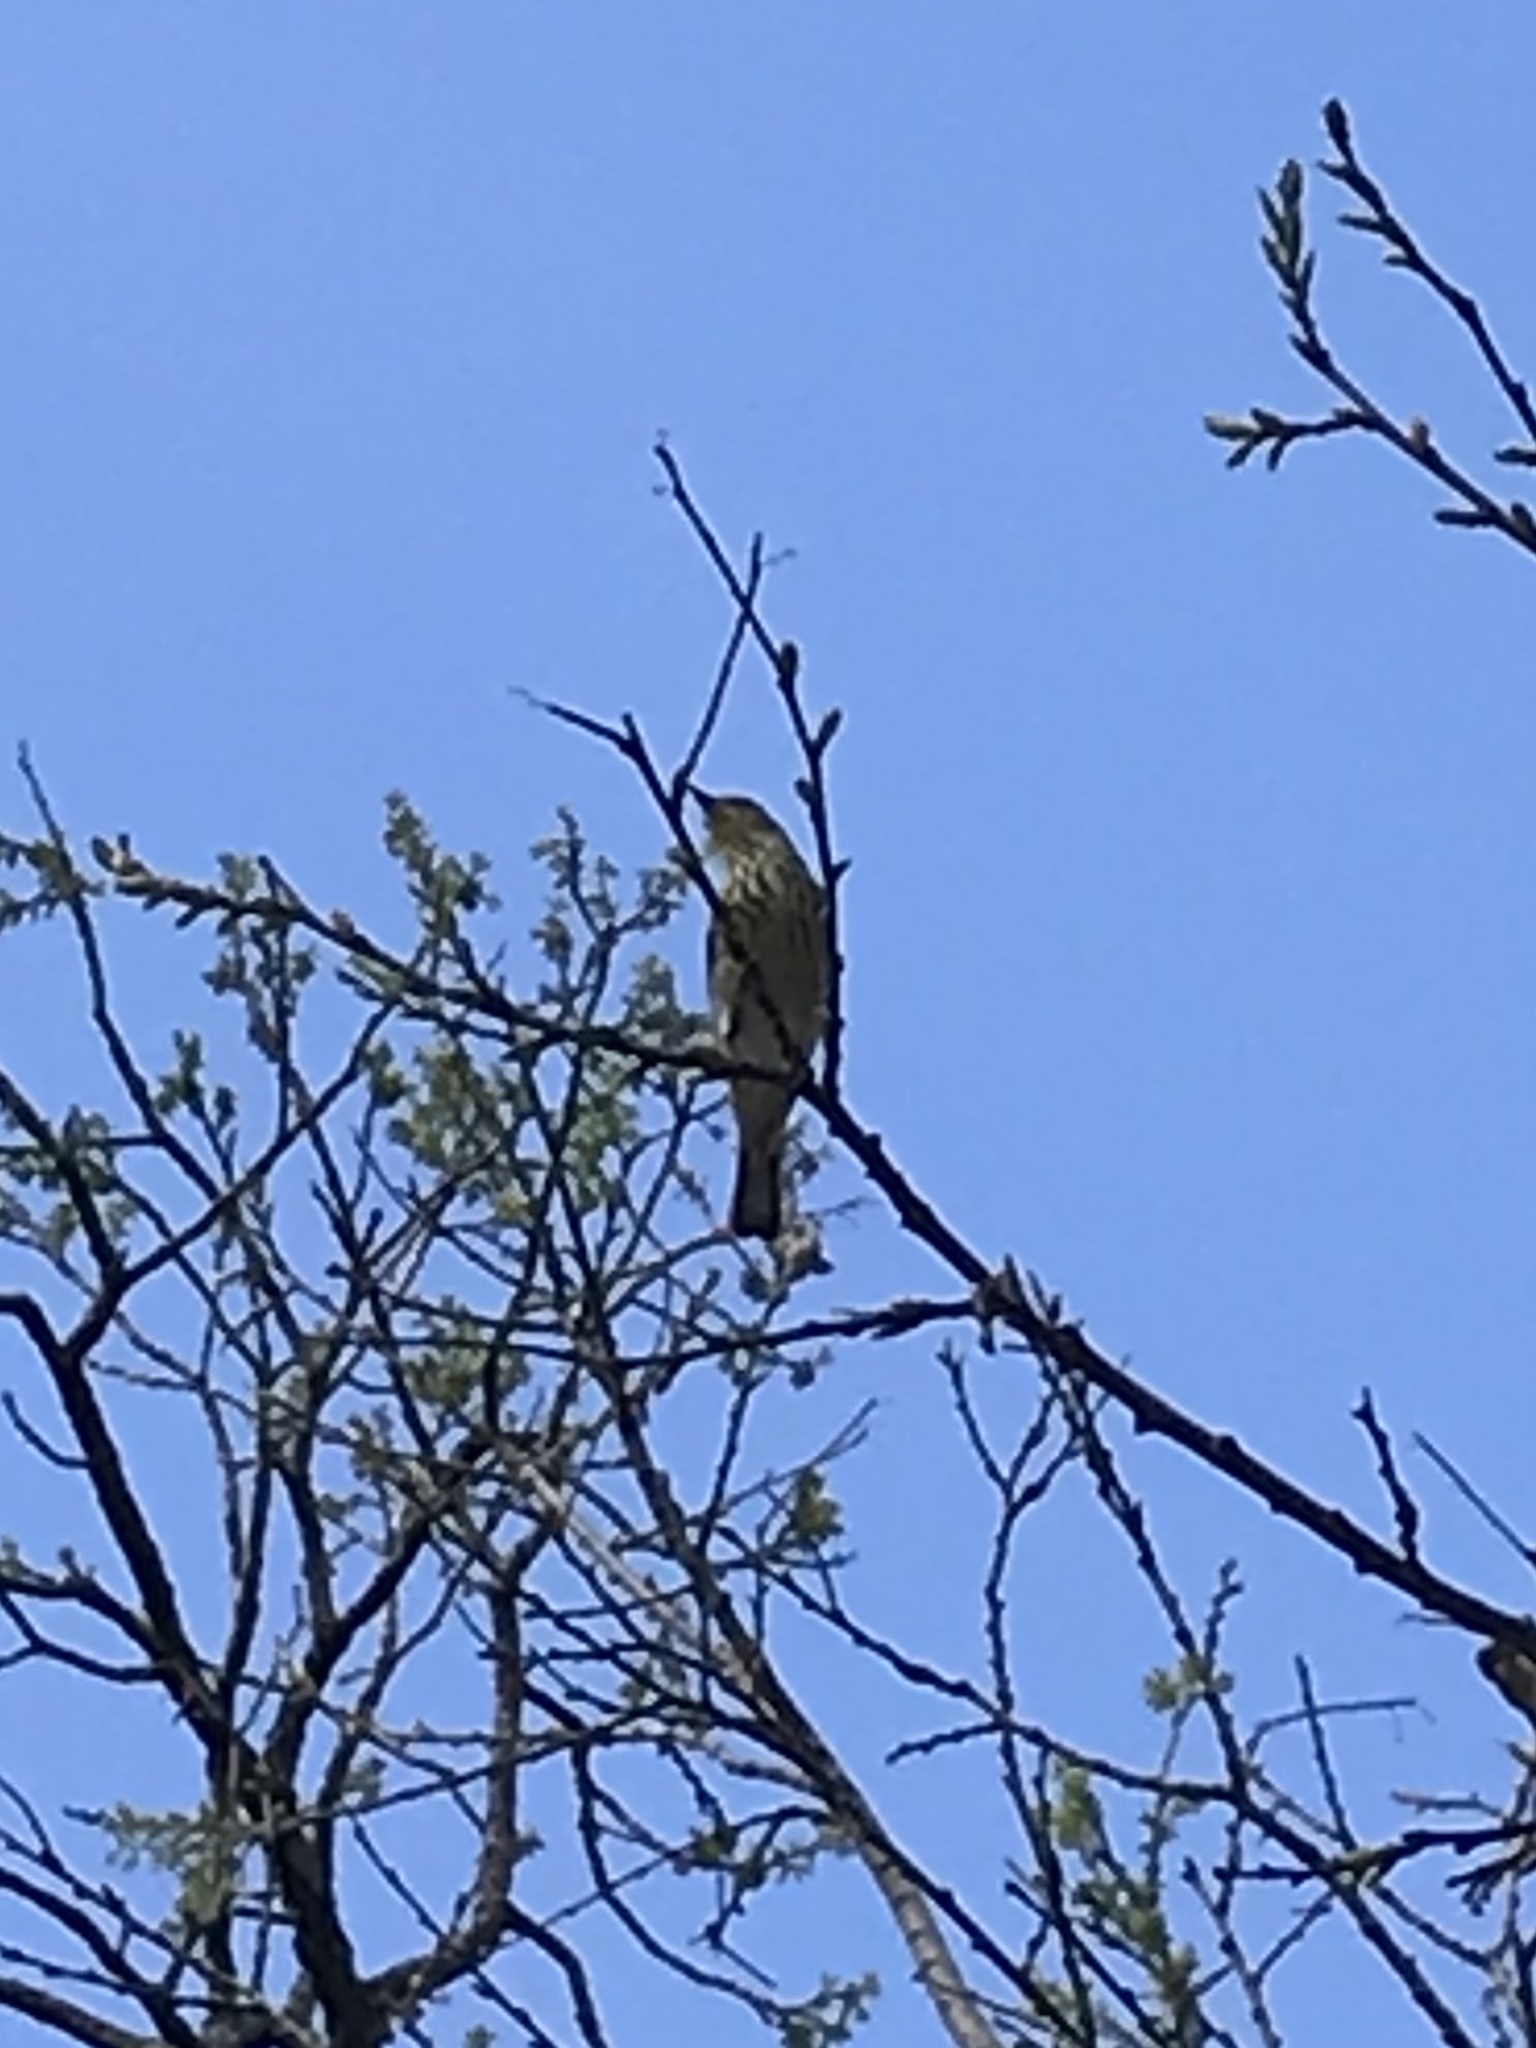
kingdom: Animalia
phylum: Chordata
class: Aves
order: Passeriformes
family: Parulidae
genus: Setophaga
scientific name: Setophaga tigrina
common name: Cape may warbler
